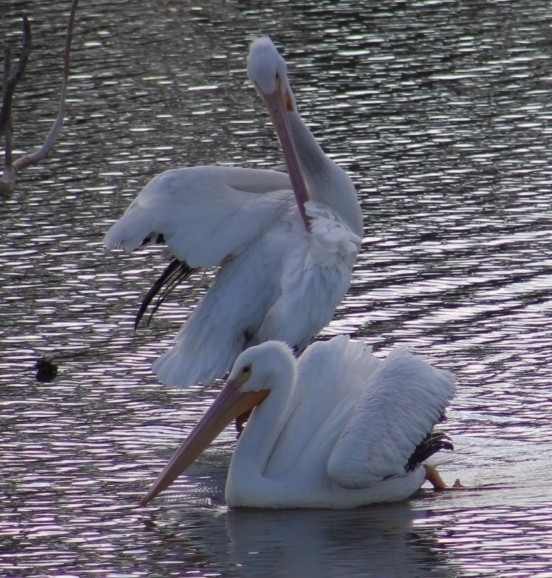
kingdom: Animalia
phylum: Chordata
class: Aves
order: Pelecaniformes
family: Pelecanidae
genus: Pelecanus
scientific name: Pelecanus erythrorhynchos
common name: American white pelican
